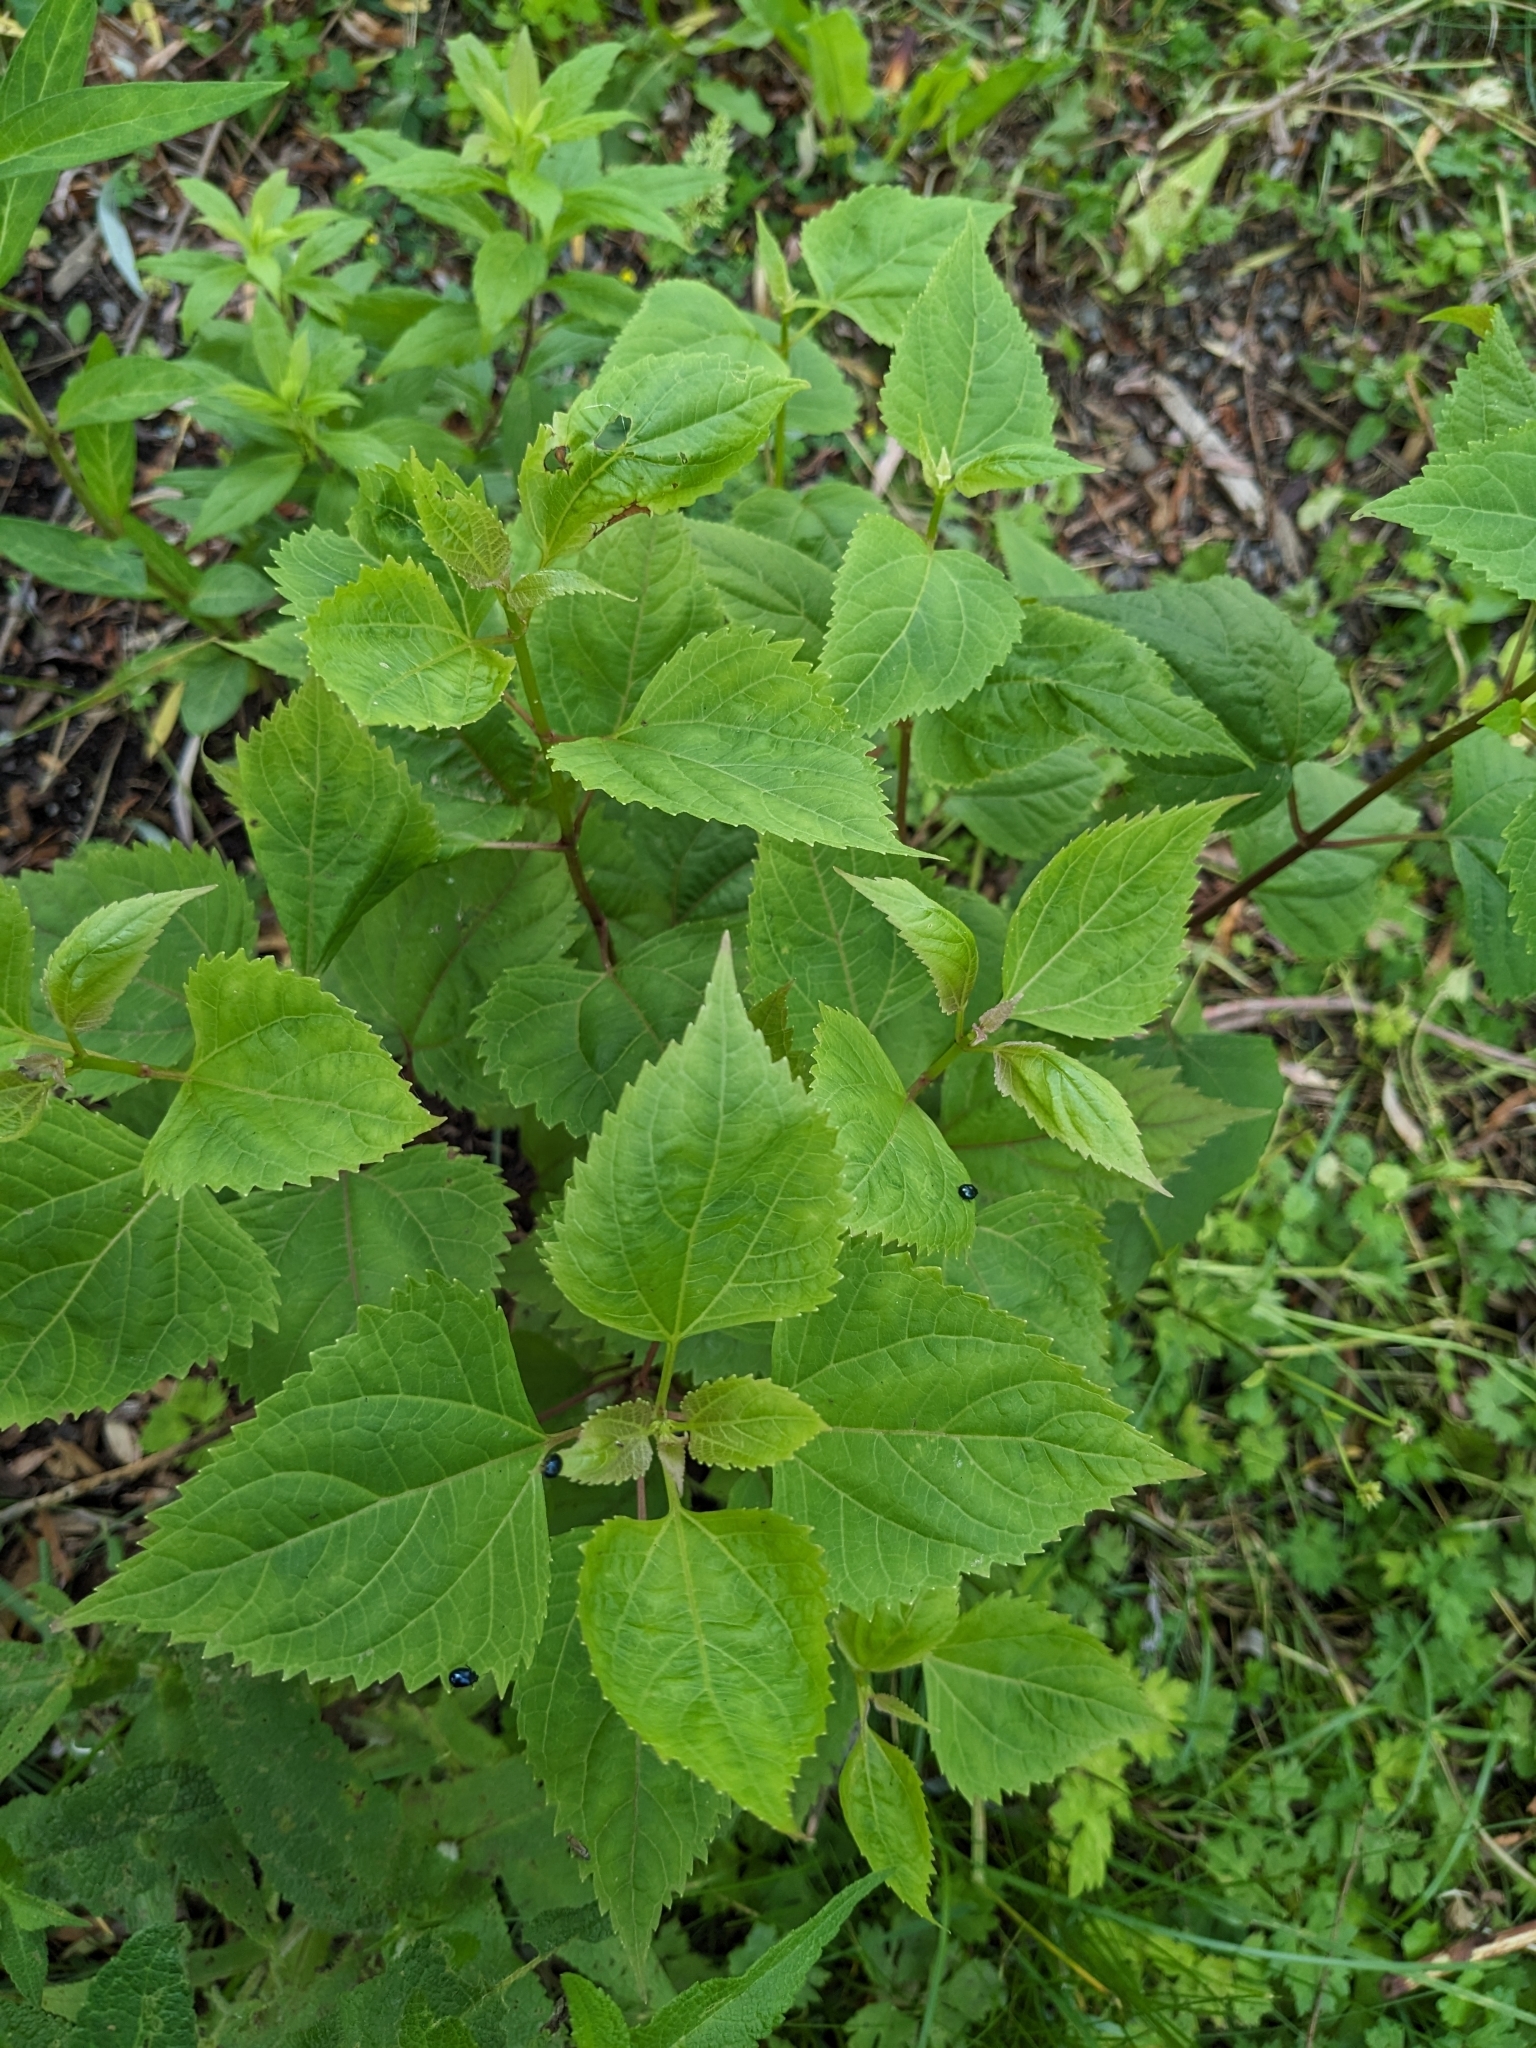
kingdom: Plantae
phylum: Tracheophyta
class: Magnoliopsida
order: Asterales
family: Asteraceae
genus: Ageratina
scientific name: Ageratina altissima
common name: White snakeroot
